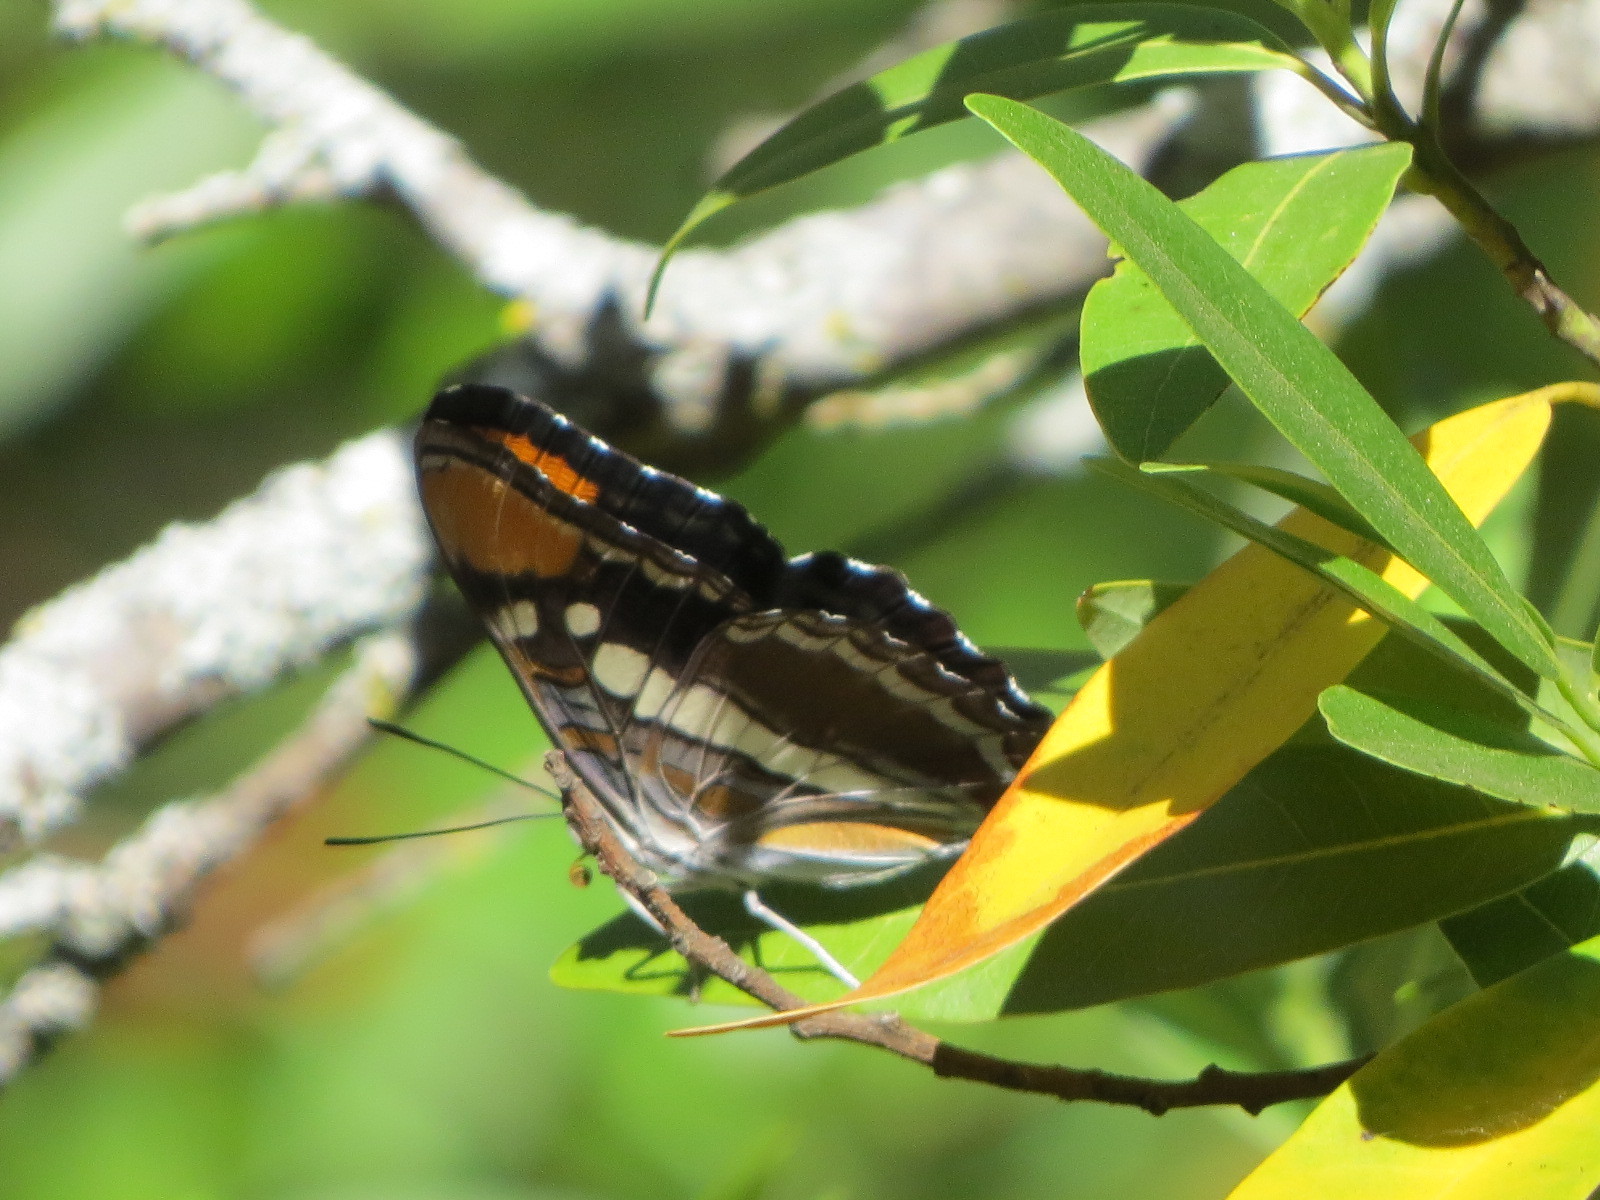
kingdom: Animalia
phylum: Arthropoda
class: Insecta
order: Lepidoptera
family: Nymphalidae
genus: Limenitis
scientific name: Limenitis bredowii
